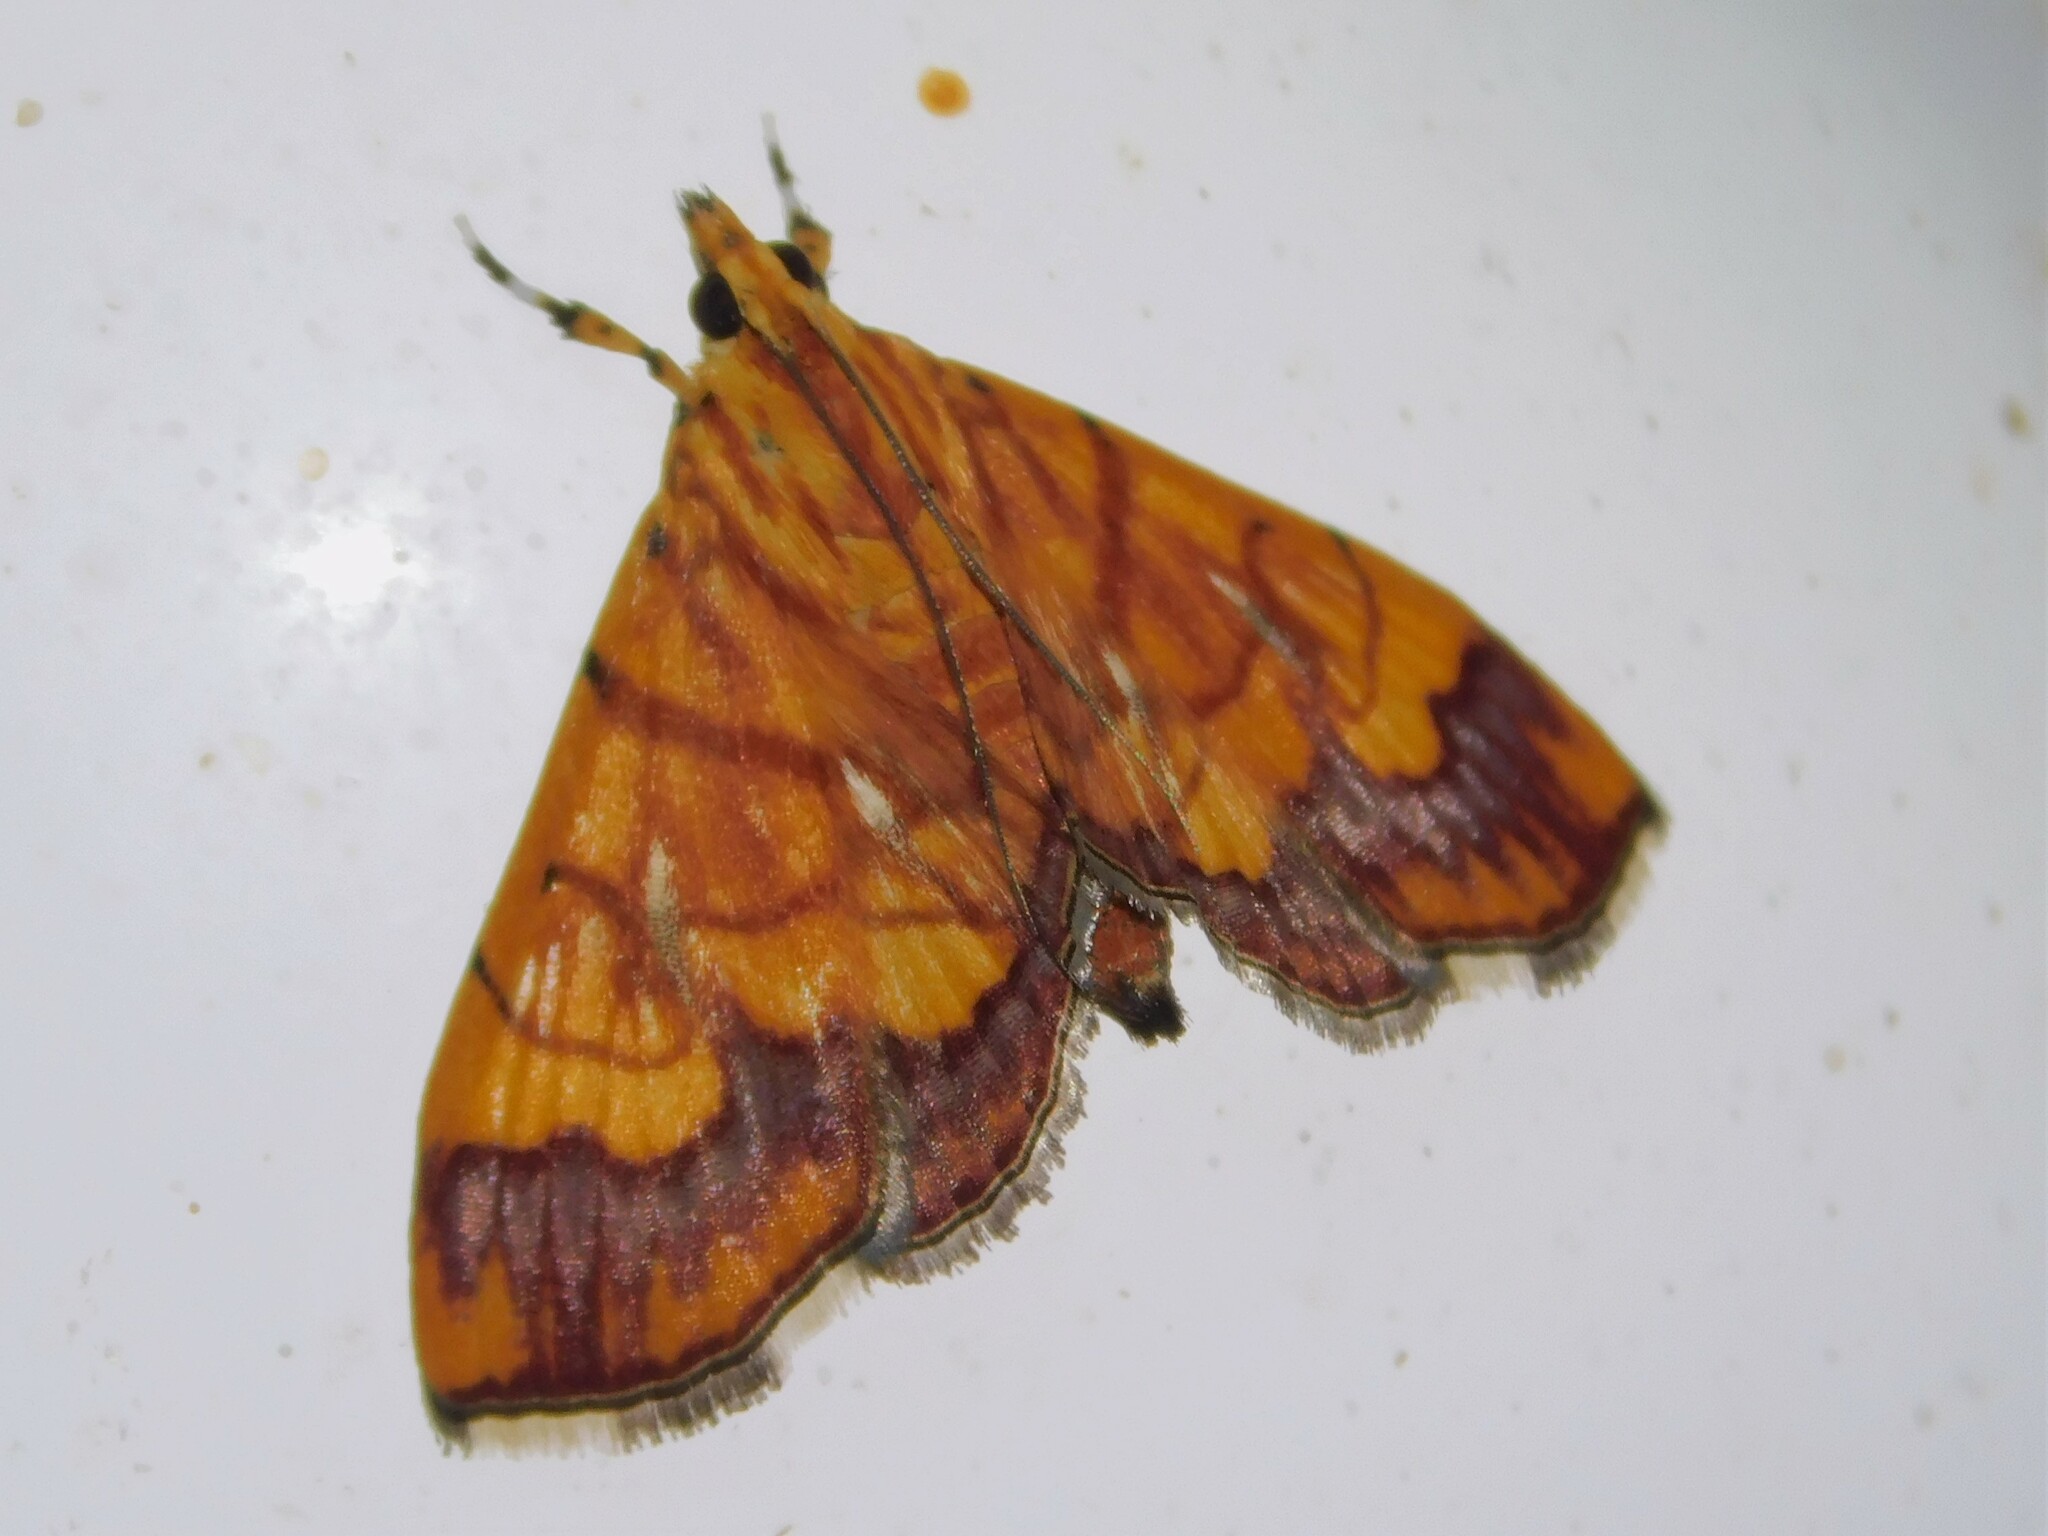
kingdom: Animalia
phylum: Arthropoda
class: Insecta
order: Lepidoptera
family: Crambidae
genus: Cryptosara
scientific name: Cryptosara caritalis
